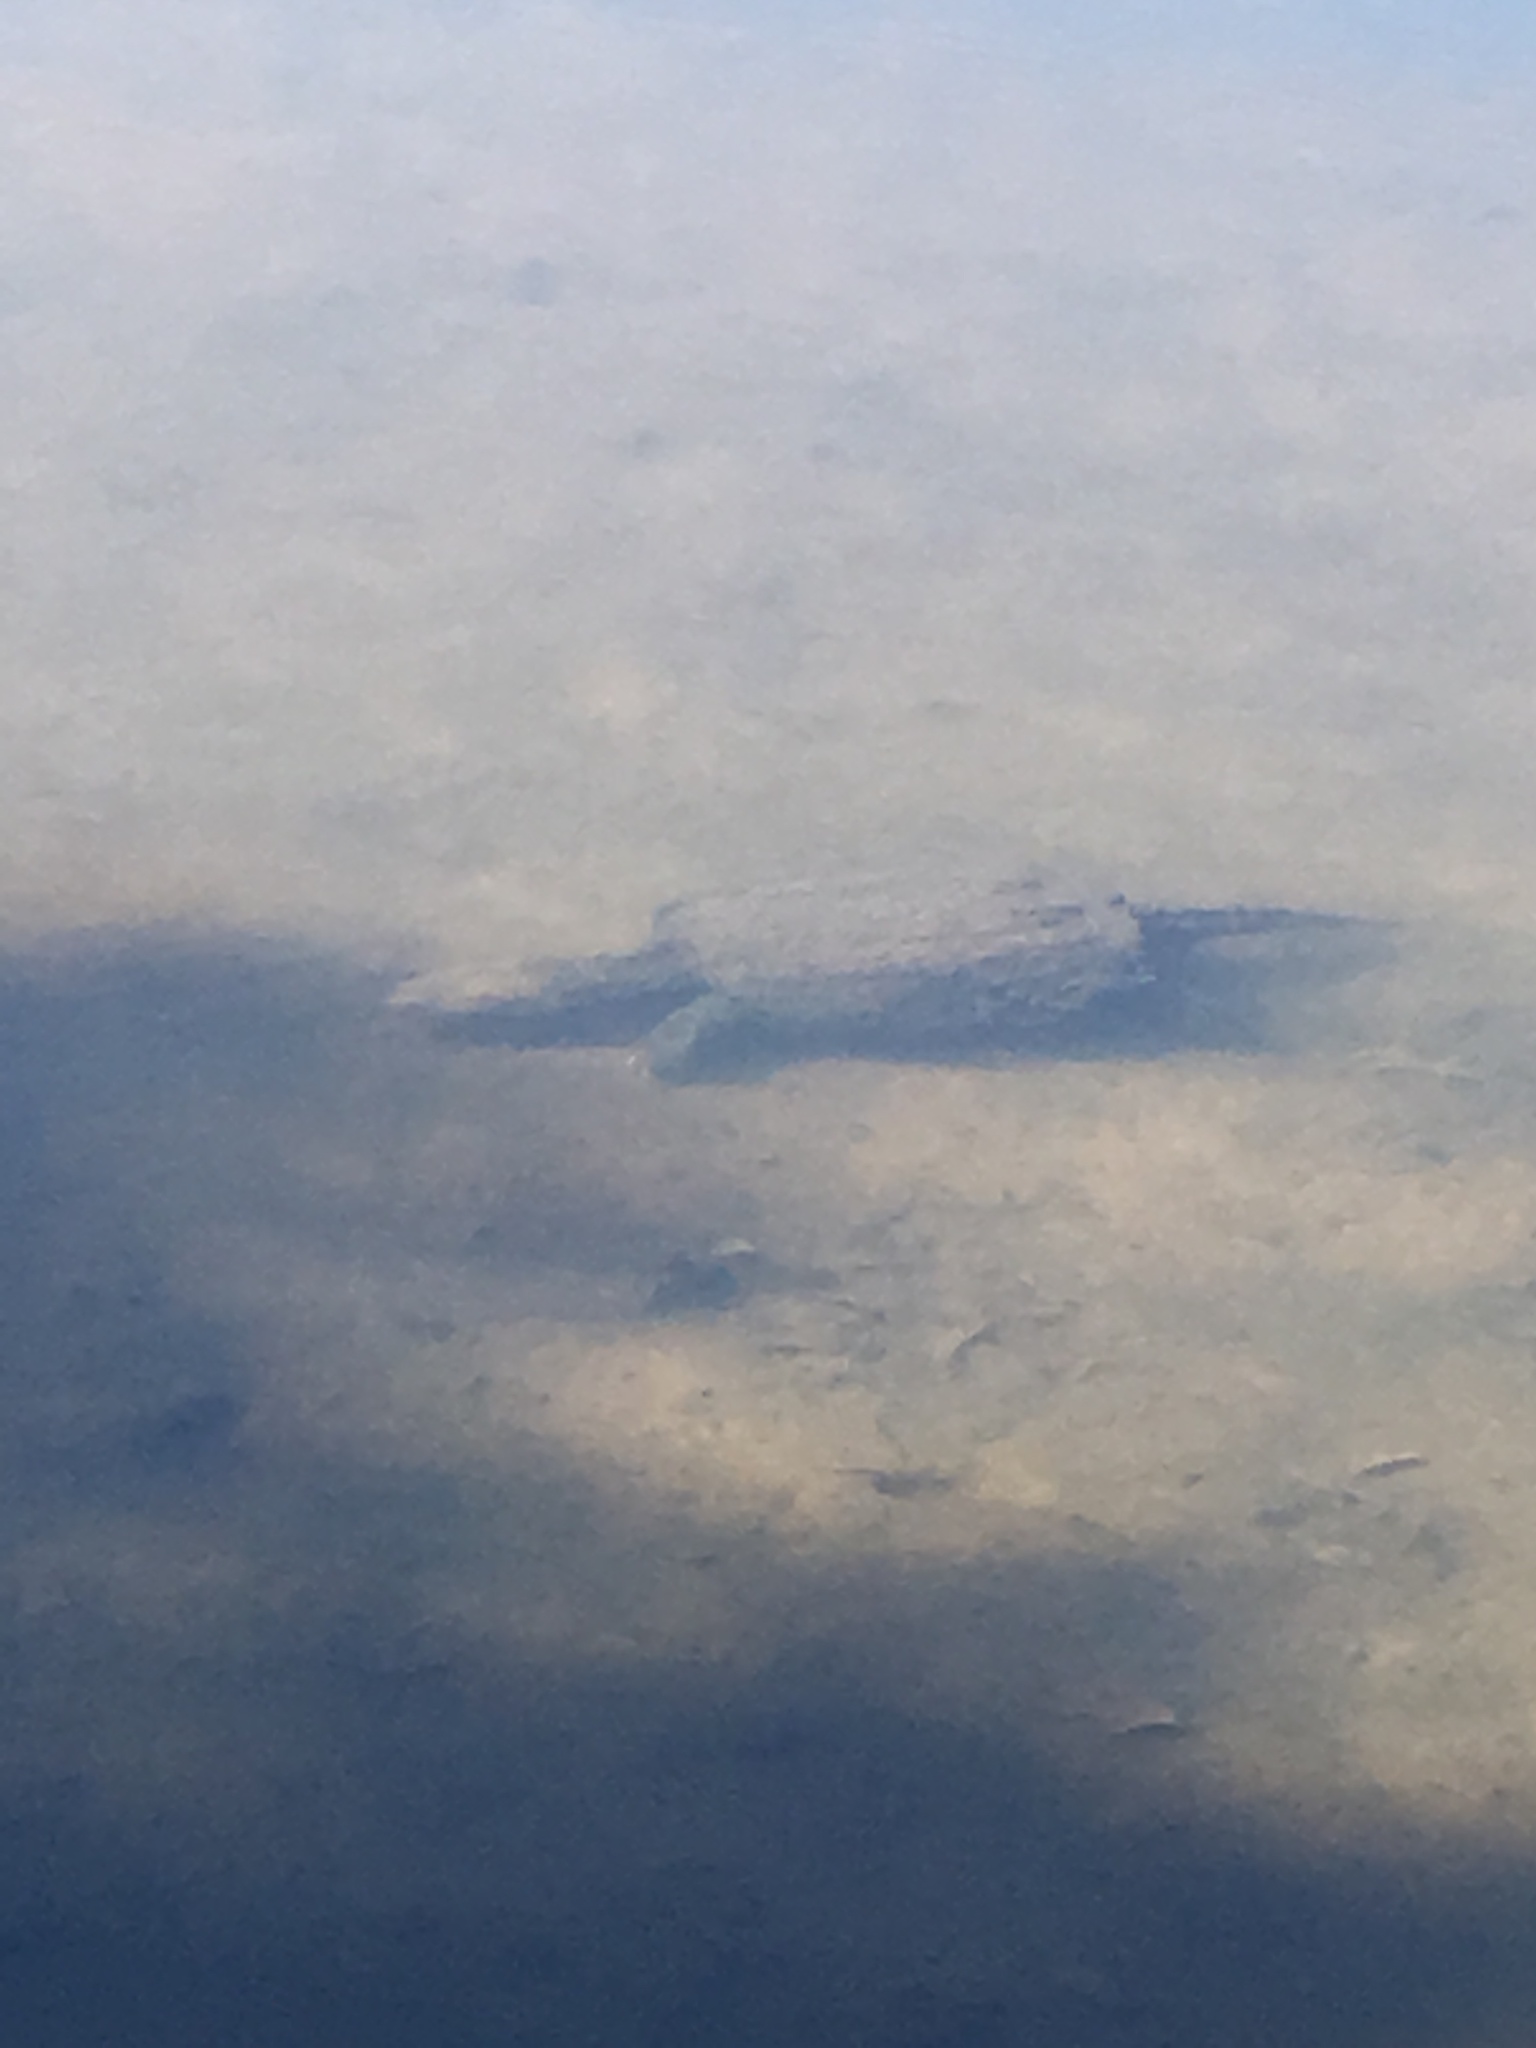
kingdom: Animalia
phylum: Chordata
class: Testudines
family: Chelydridae
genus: Chelydra
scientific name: Chelydra serpentina
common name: Common snapping turtle
